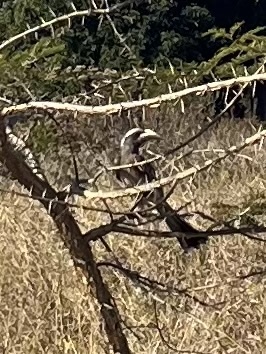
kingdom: Animalia
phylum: Chordata
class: Aves
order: Bucerotiformes
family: Bucerotidae
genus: Lophoceros
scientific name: Lophoceros nasutus
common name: African grey hornbill
